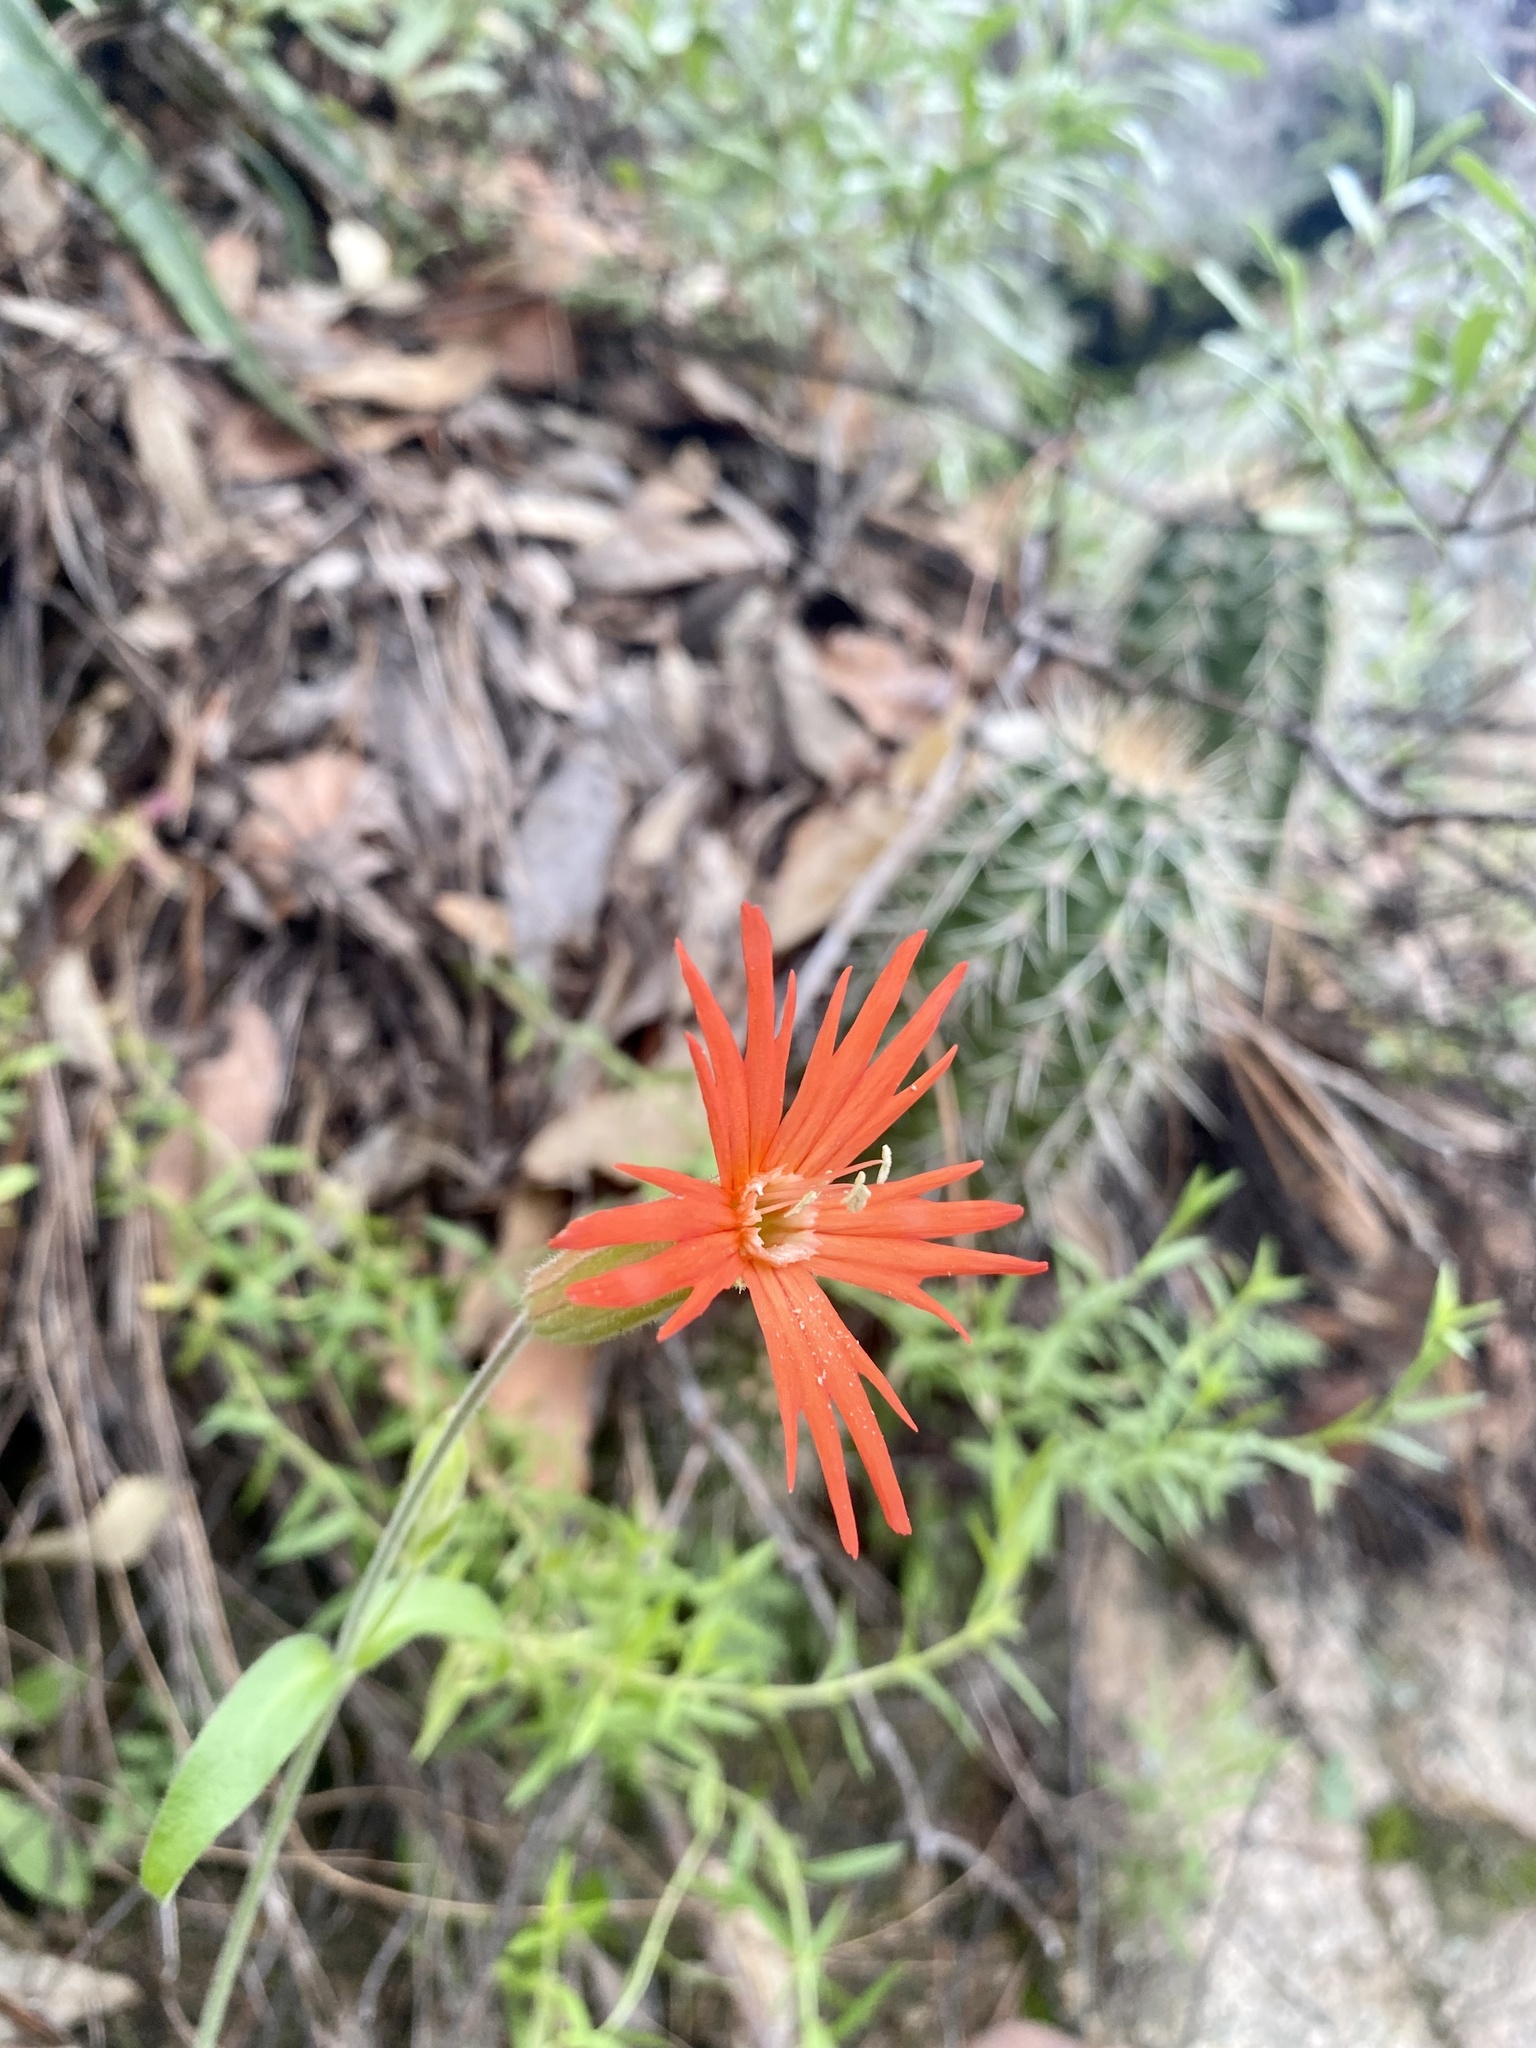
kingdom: Plantae
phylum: Tracheophyta
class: Magnoliopsida
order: Caryophyllales
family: Caryophyllaceae
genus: Silene
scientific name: Silene laciniata
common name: Indian-pink
